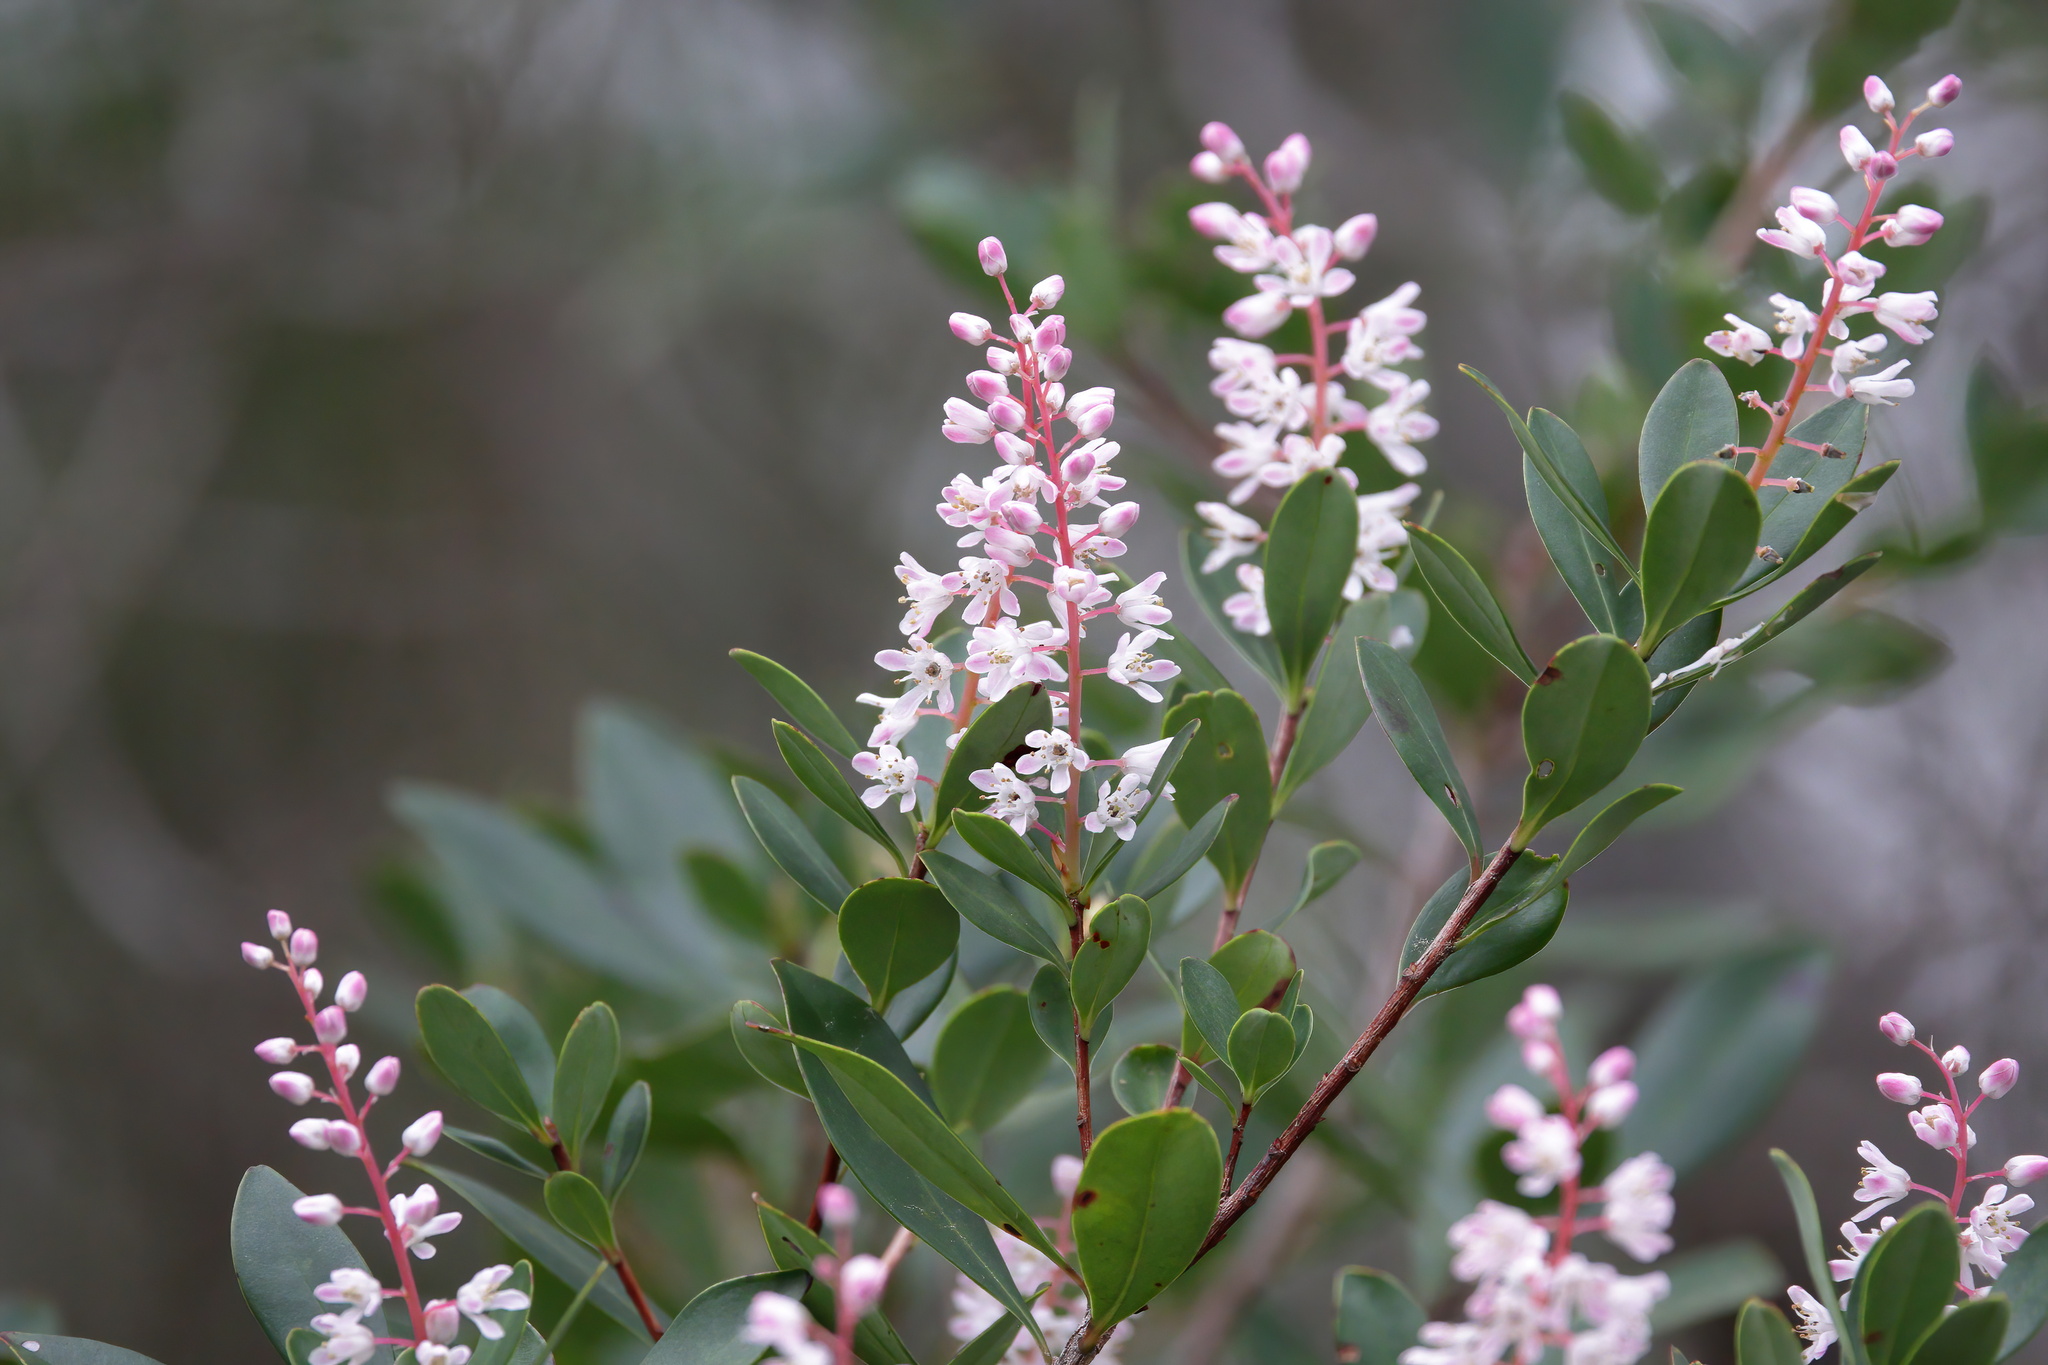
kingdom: Plantae
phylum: Tracheophyta
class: Magnoliopsida
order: Ericales
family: Cyrillaceae
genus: Cliftonia
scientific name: Cliftonia monophylla
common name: Titi
